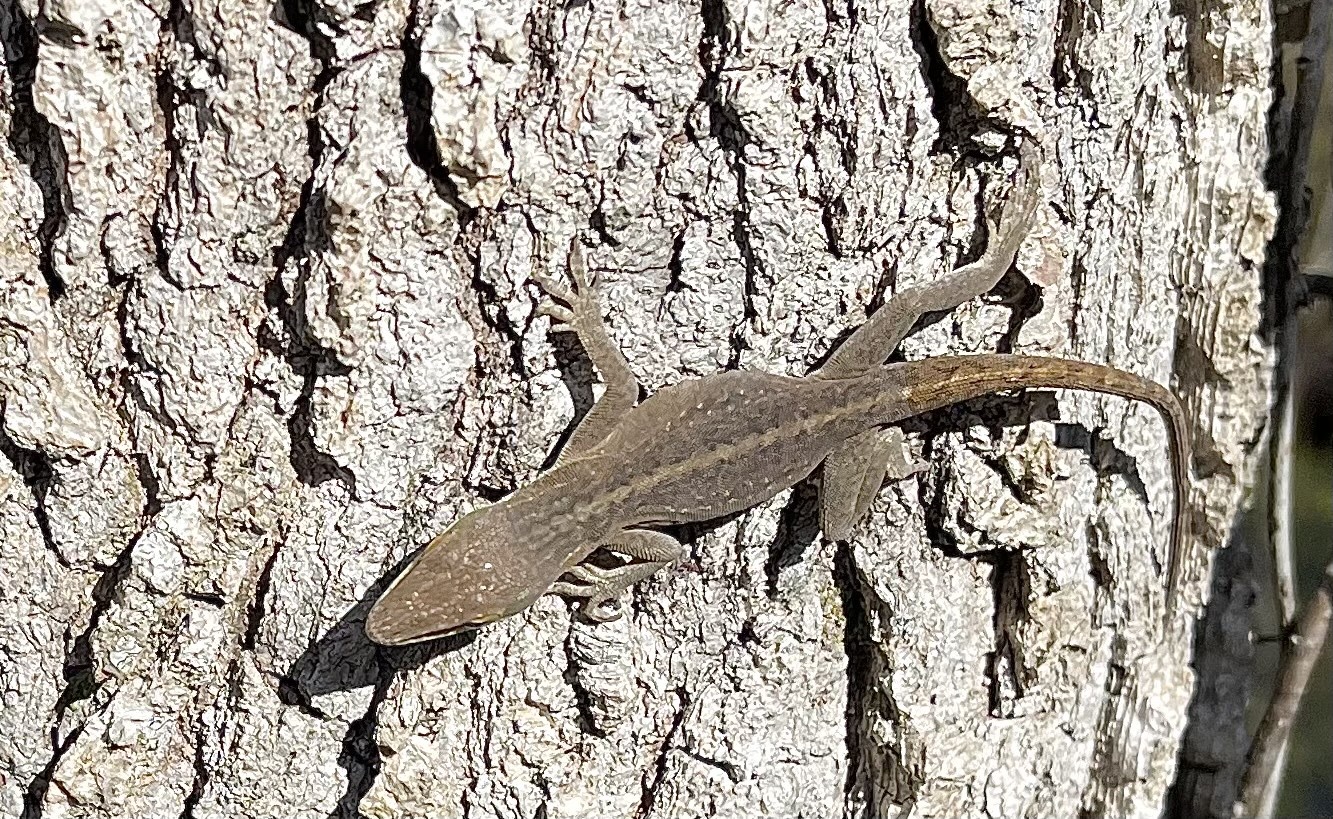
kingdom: Animalia
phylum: Chordata
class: Squamata
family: Dactyloidae
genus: Anolis
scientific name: Anolis carolinensis
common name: Green anole
